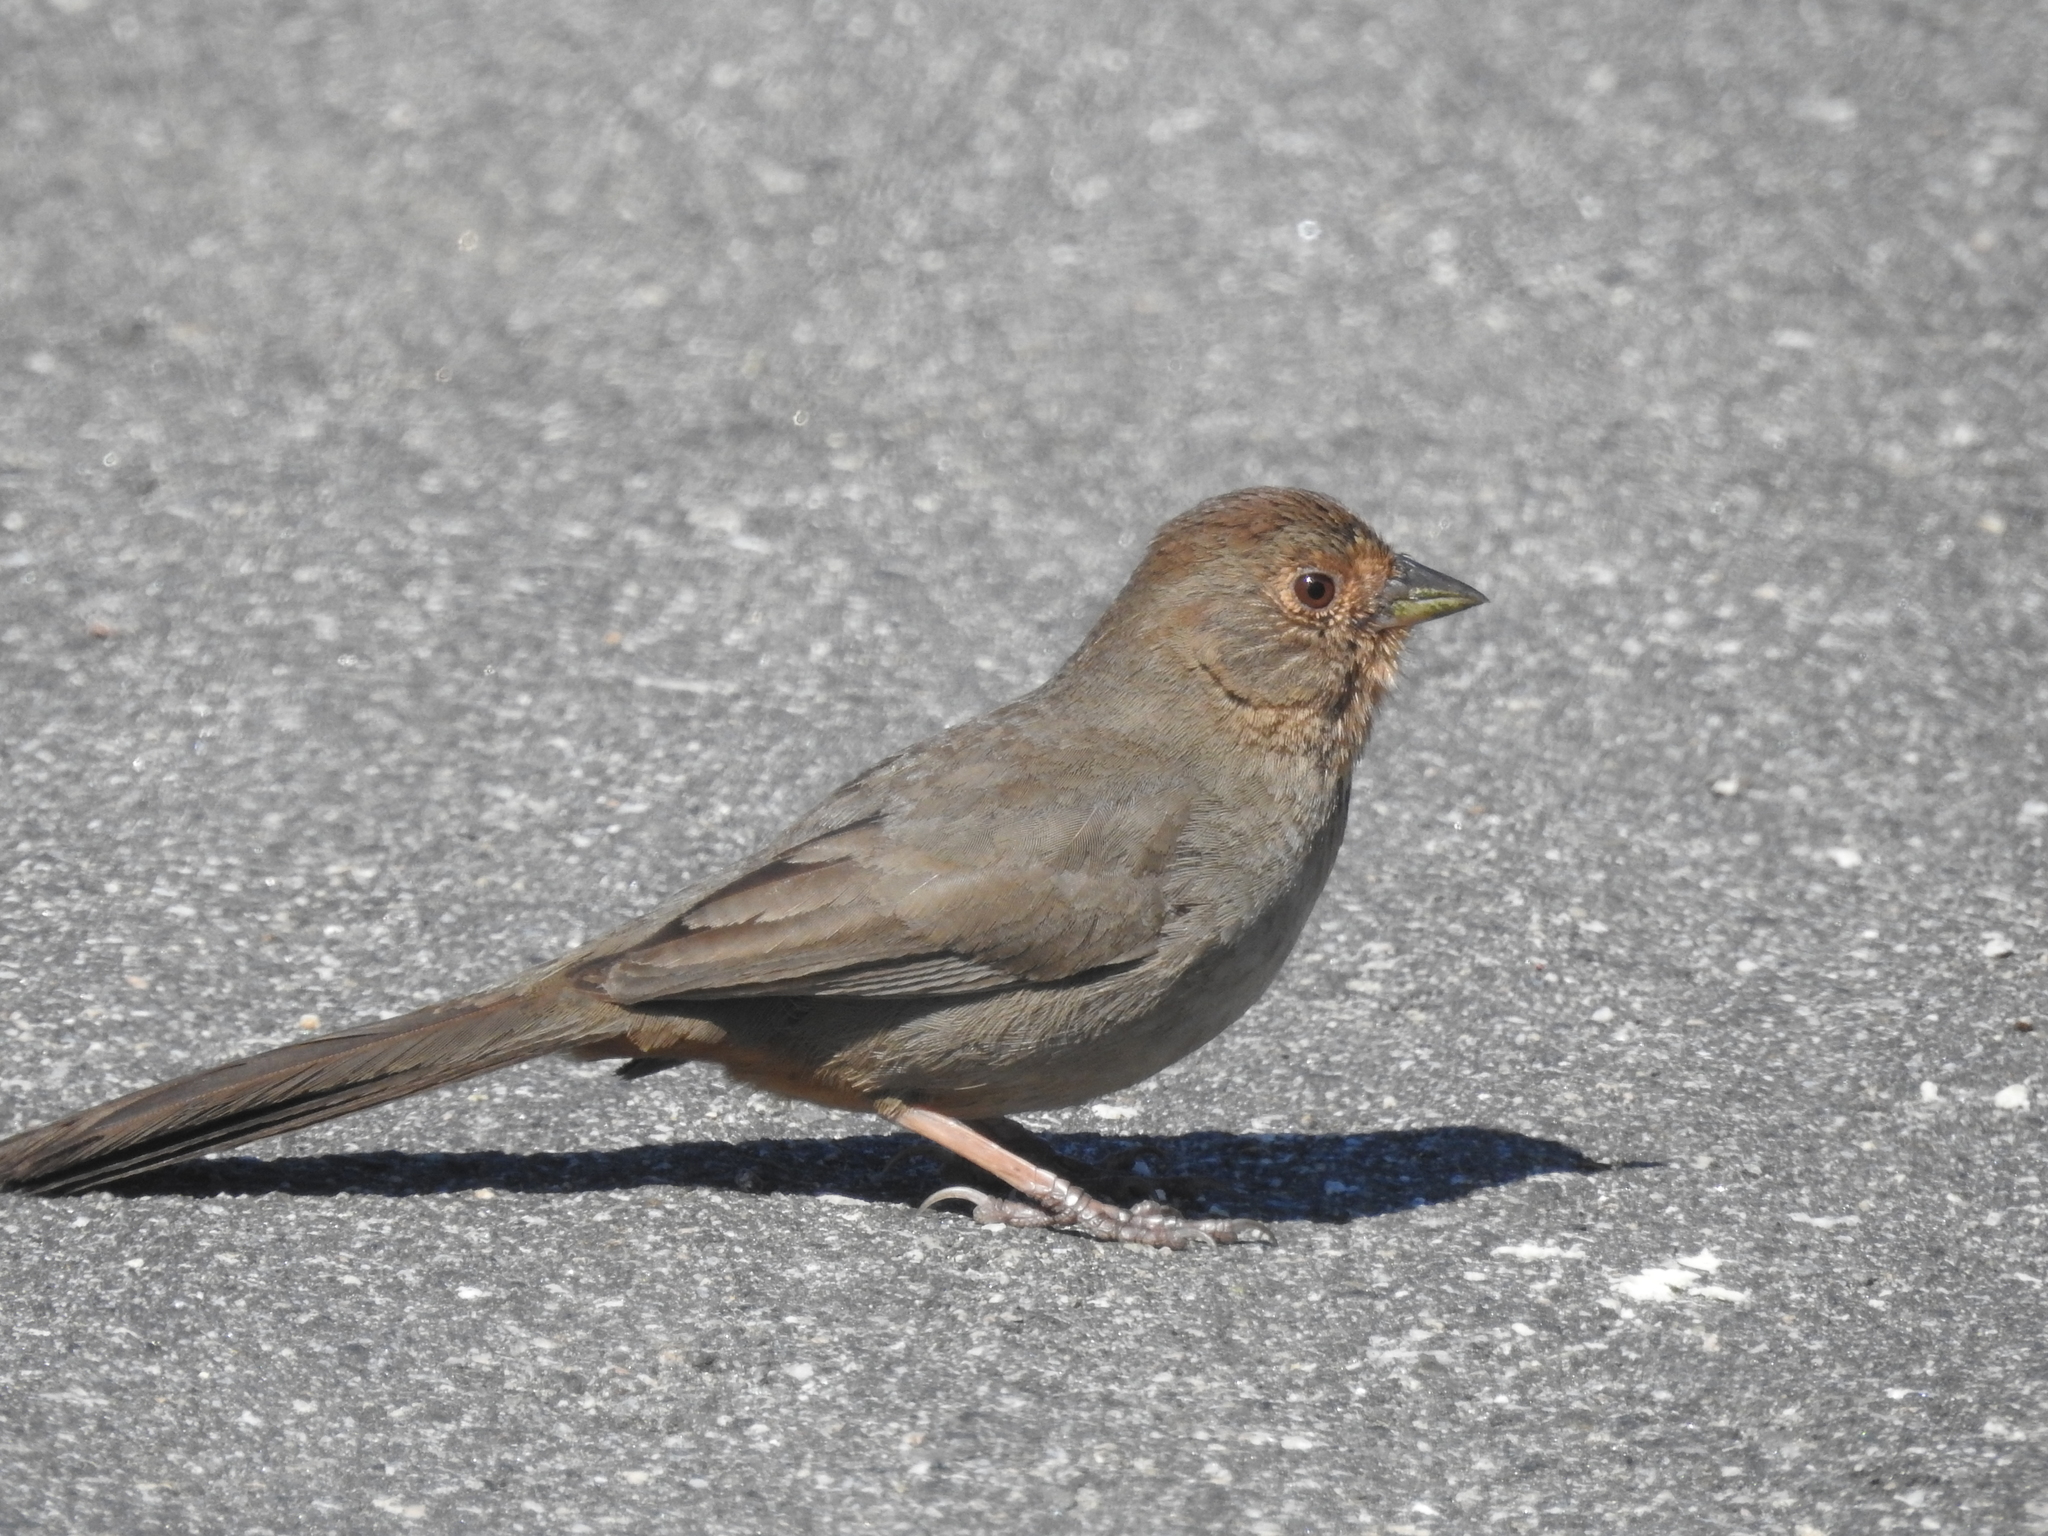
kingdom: Animalia
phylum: Chordata
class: Aves
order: Passeriformes
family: Passerellidae
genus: Melozone
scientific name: Melozone crissalis
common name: California towhee
